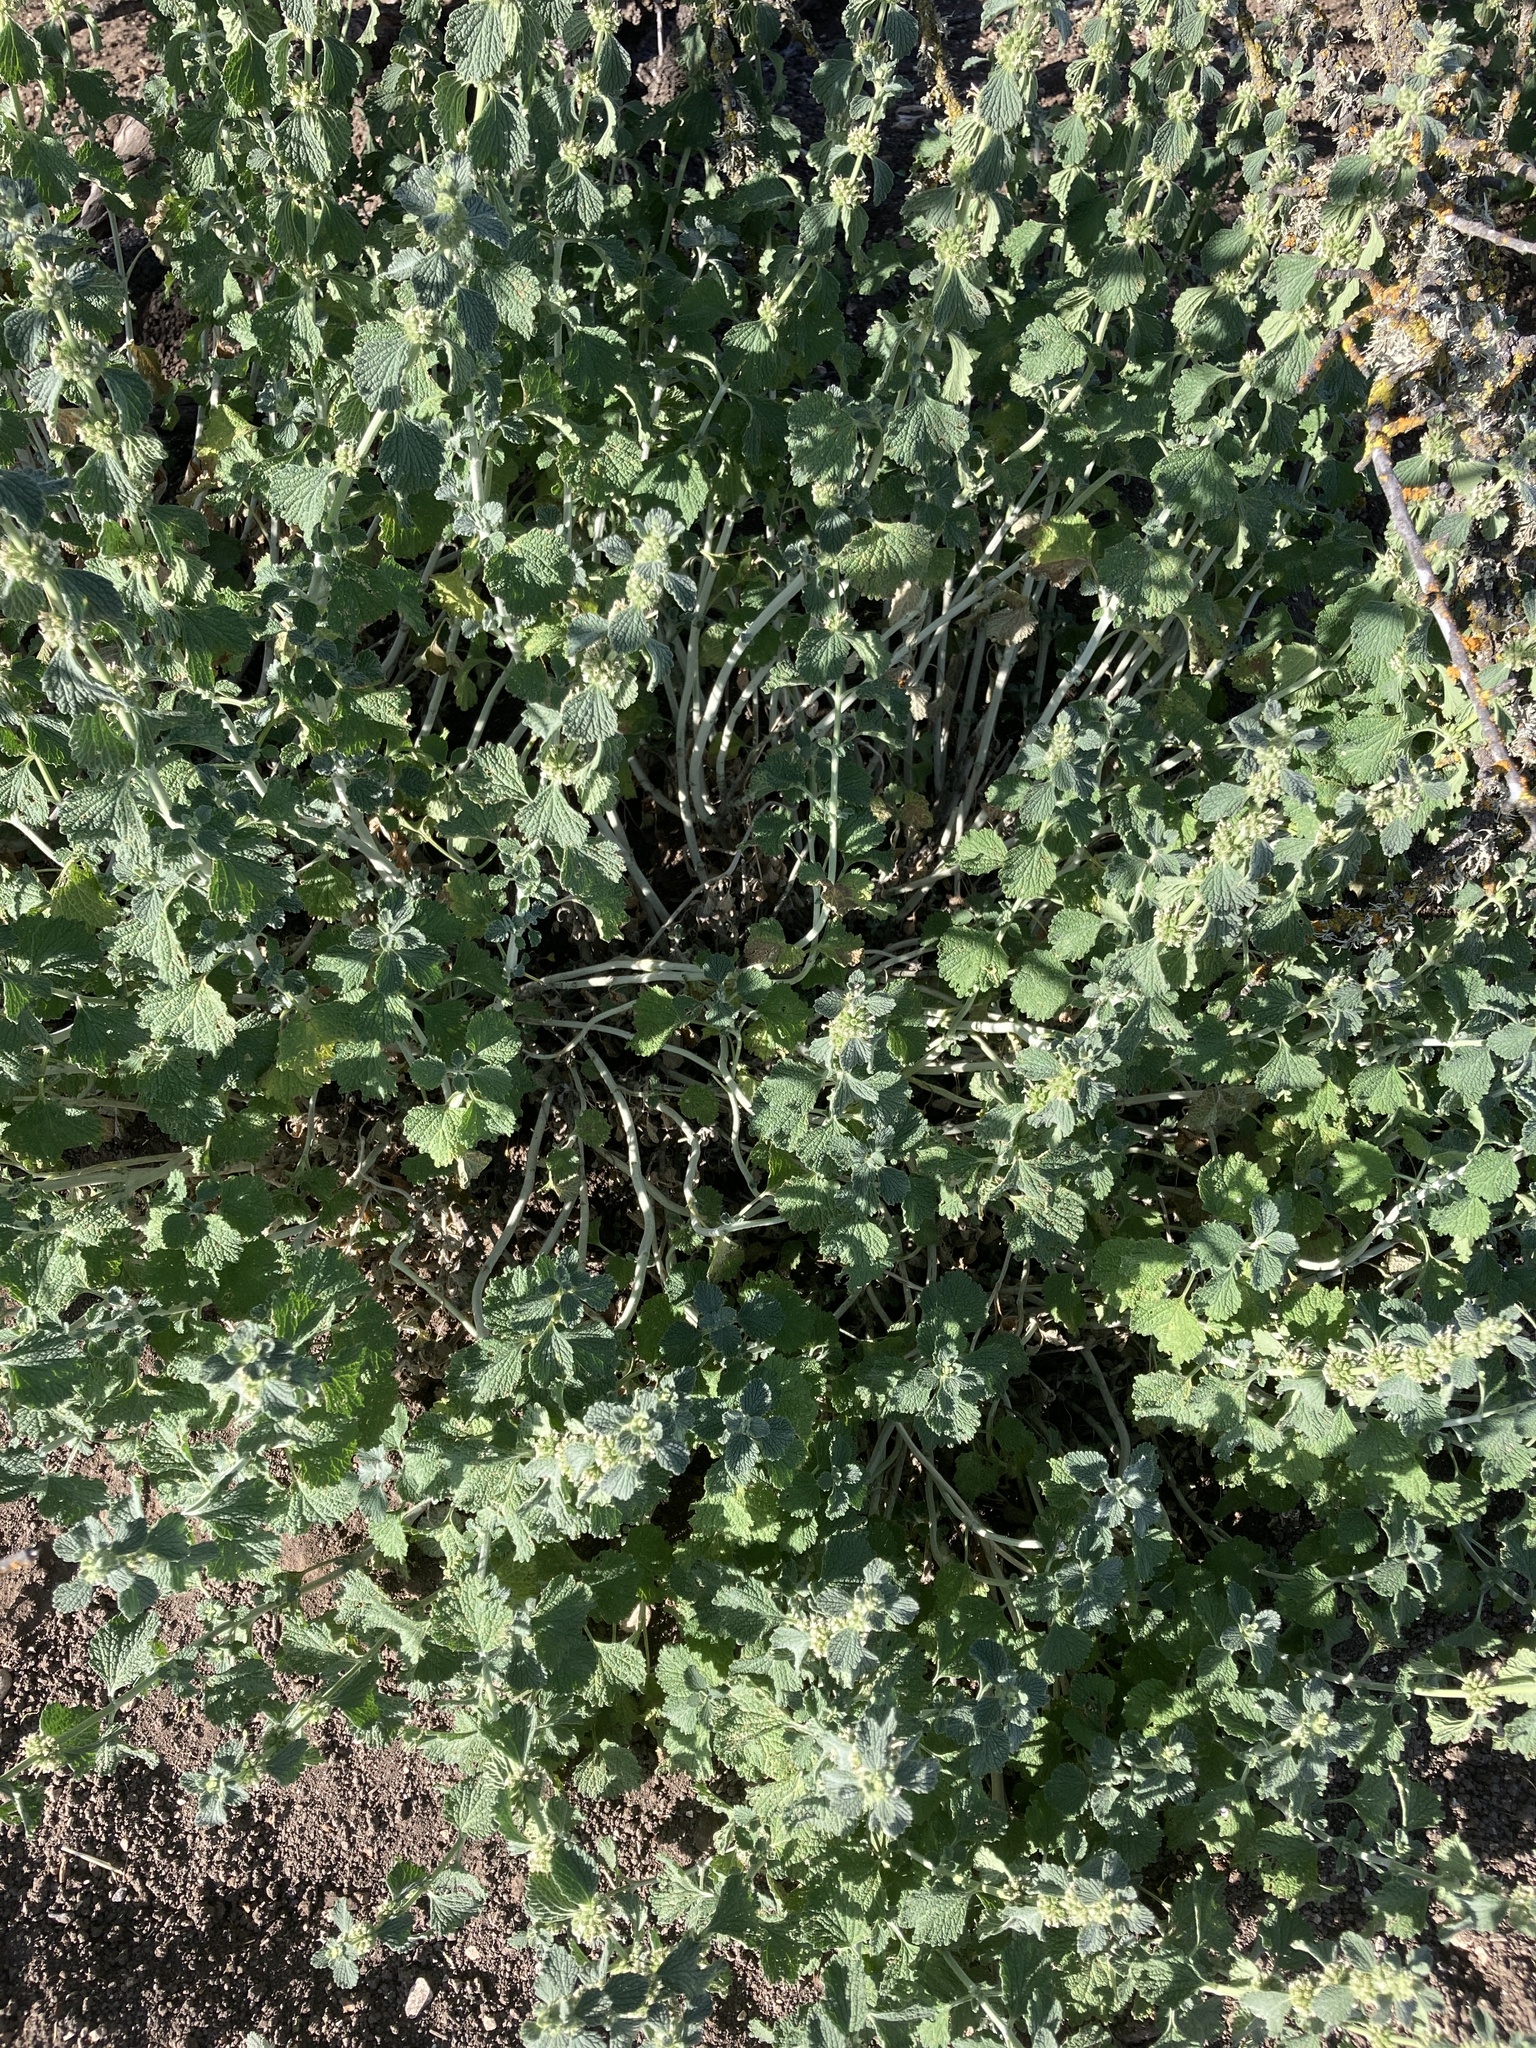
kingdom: Plantae
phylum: Tracheophyta
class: Magnoliopsida
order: Lamiales
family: Lamiaceae
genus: Marrubium
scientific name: Marrubium vulgare
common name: Horehound
